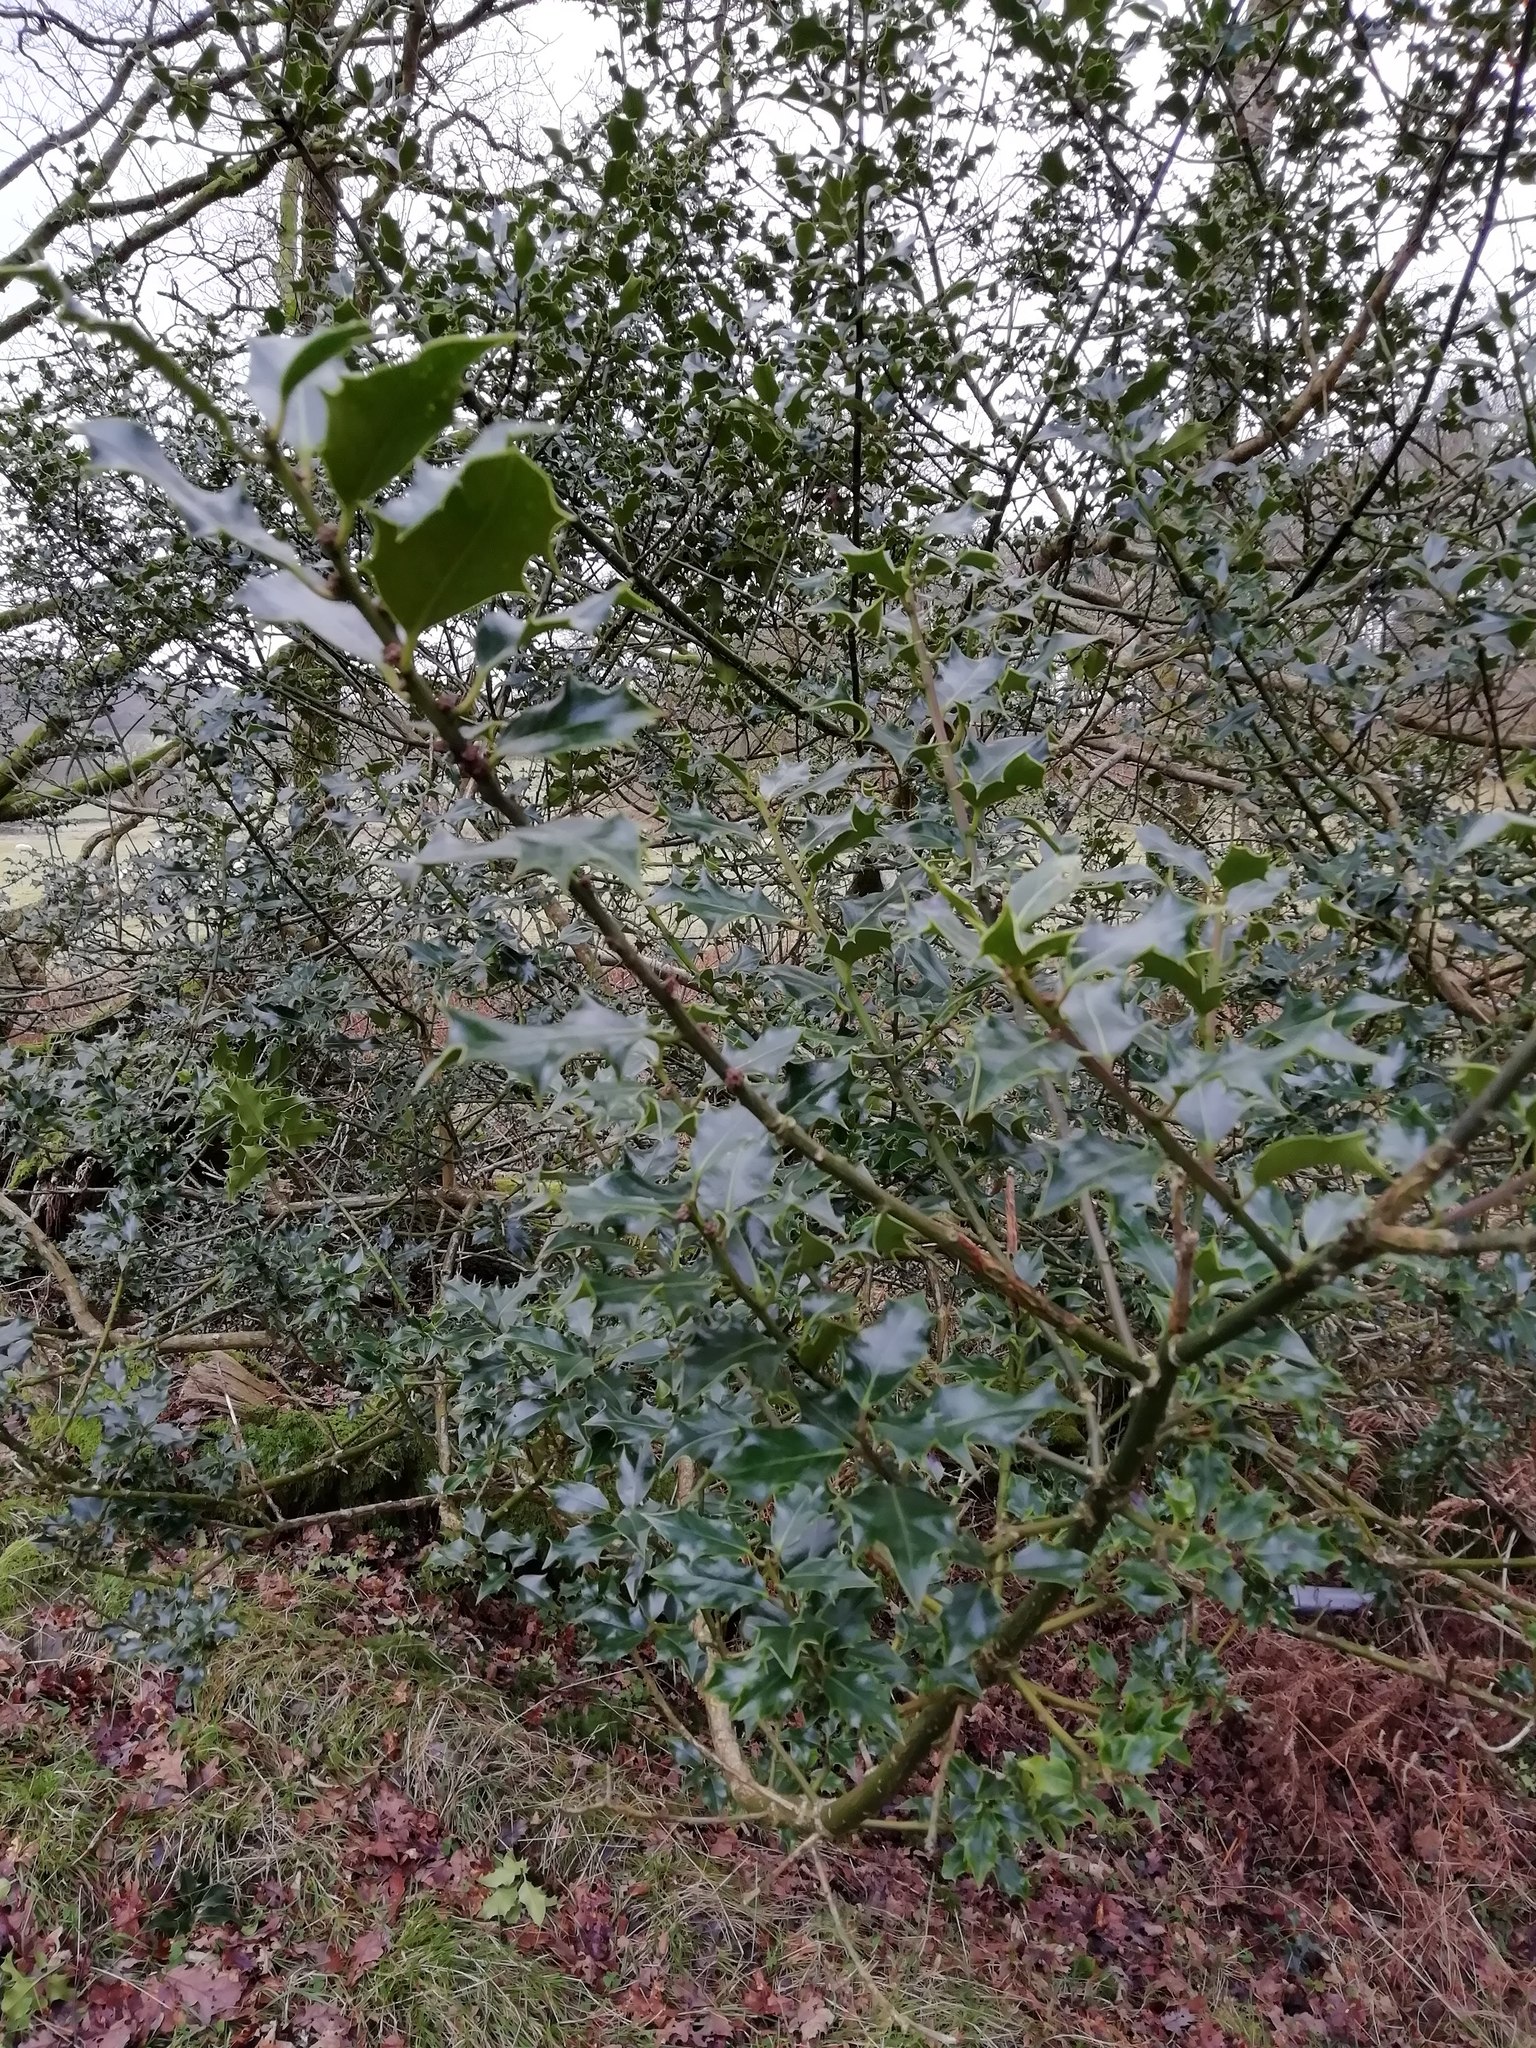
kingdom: Plantae
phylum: Tracheophyta
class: Magnoliopsida
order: Aquifoliales
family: Aquifoliaceae
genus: Ilex
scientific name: Ilex aquifolium
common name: English holly
